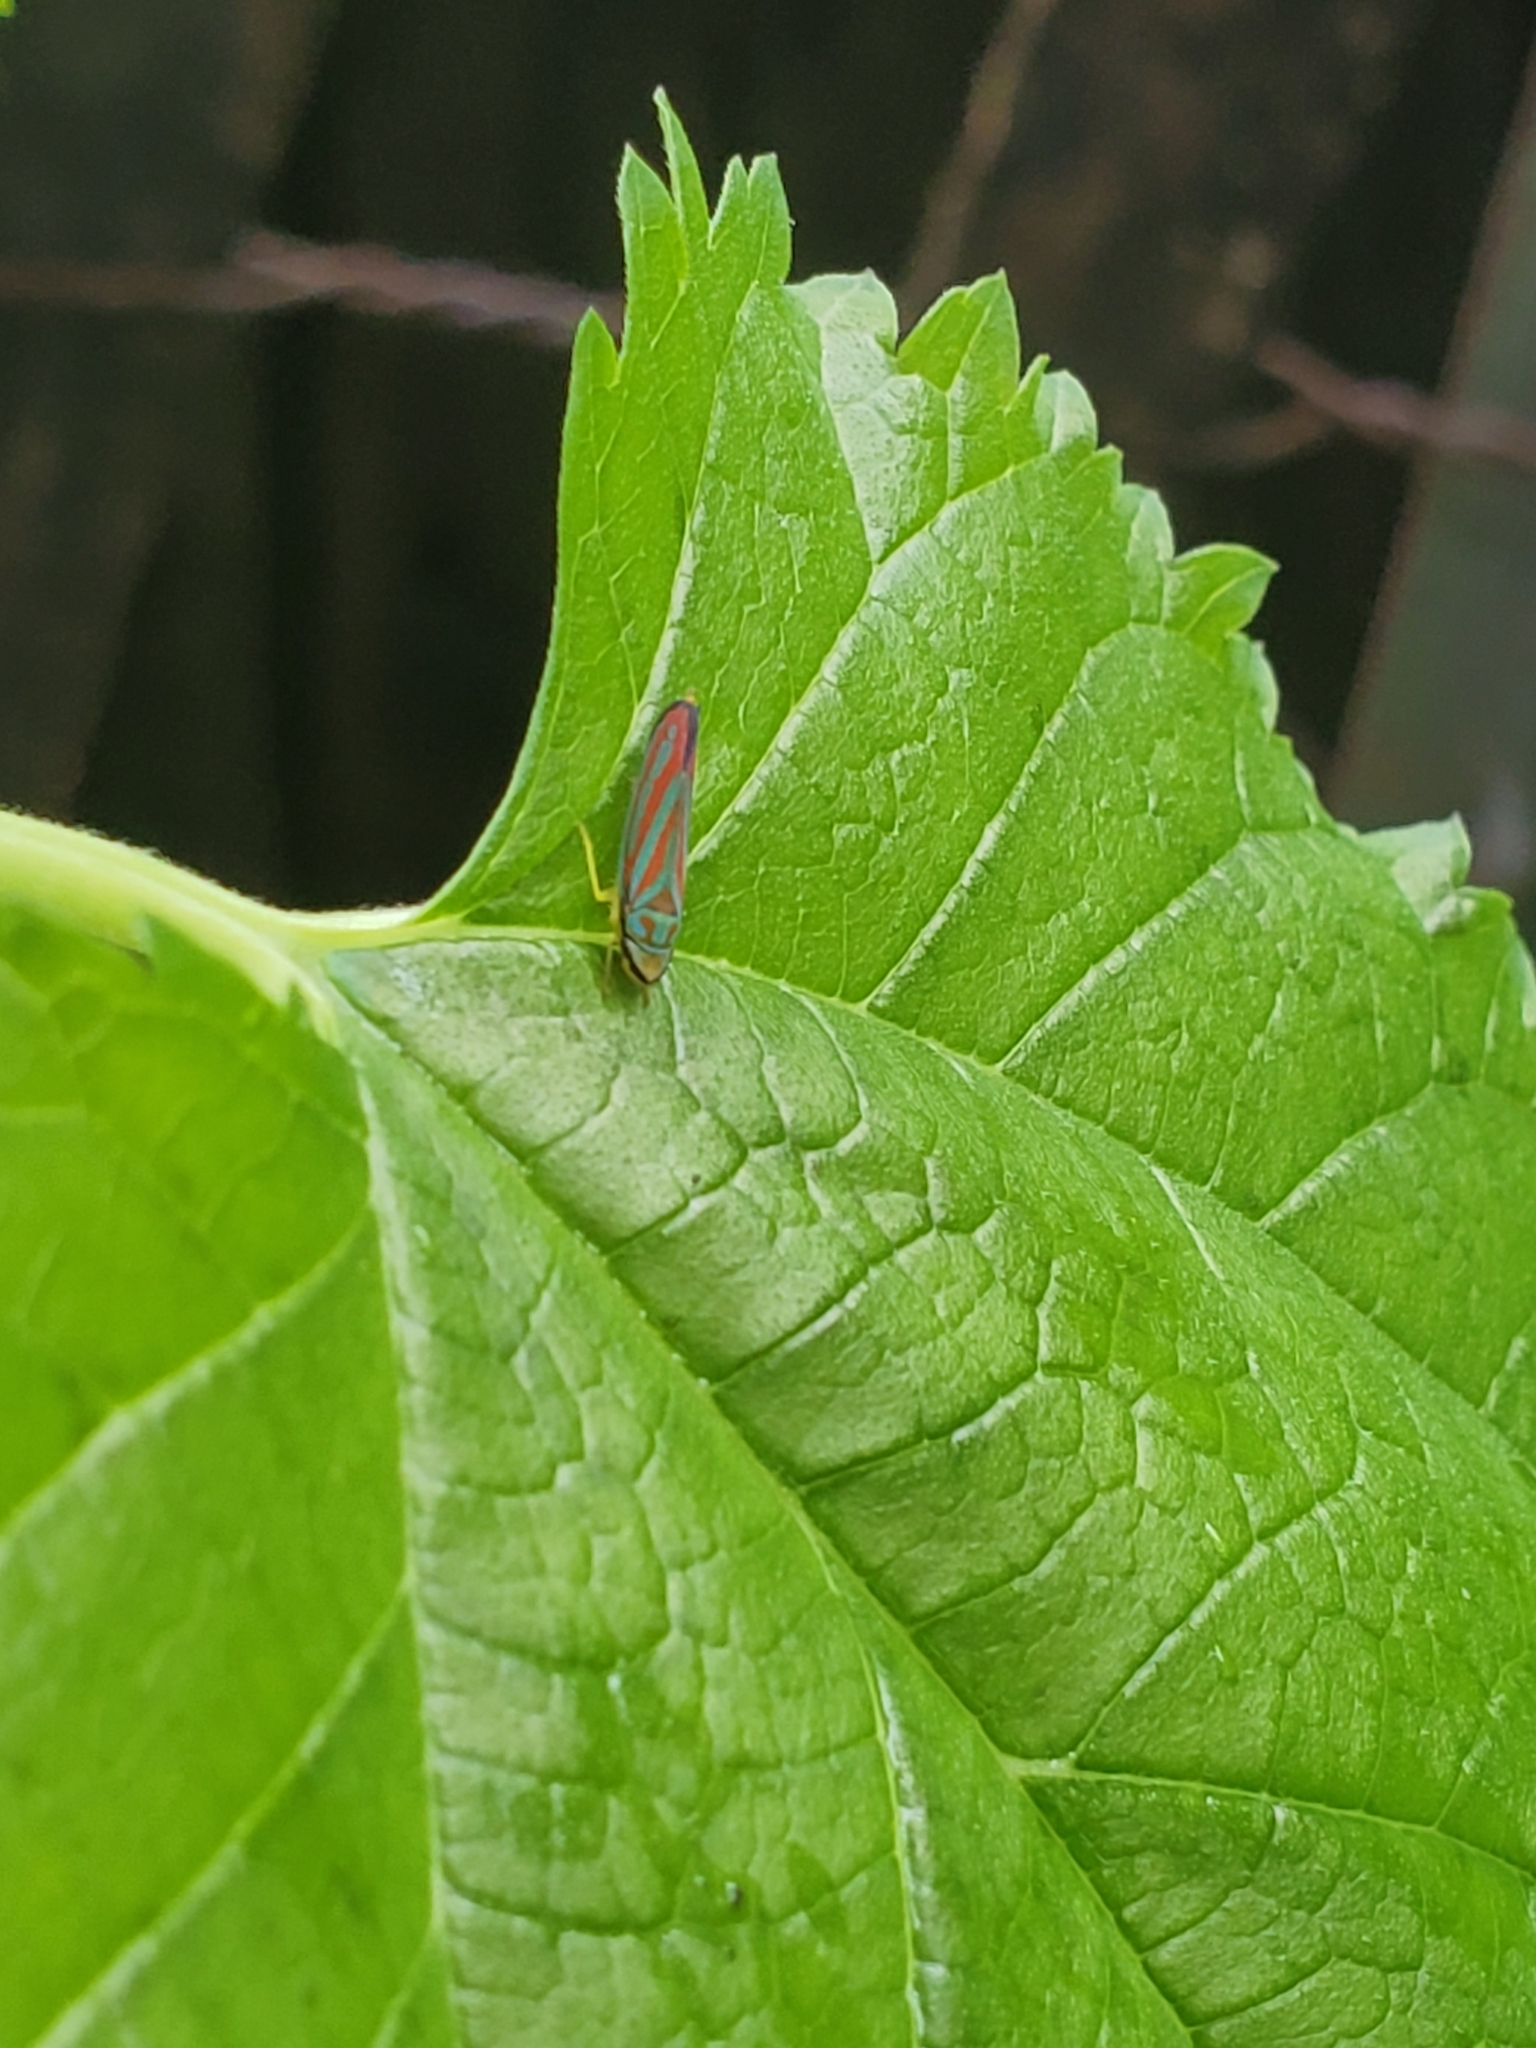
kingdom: Animalia
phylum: Arthropoda
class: Insecta
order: Hemiptera
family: Cicadellidae
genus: Graphocephala
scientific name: Graphocephala coccinea
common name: Candy-striped leafhopper
